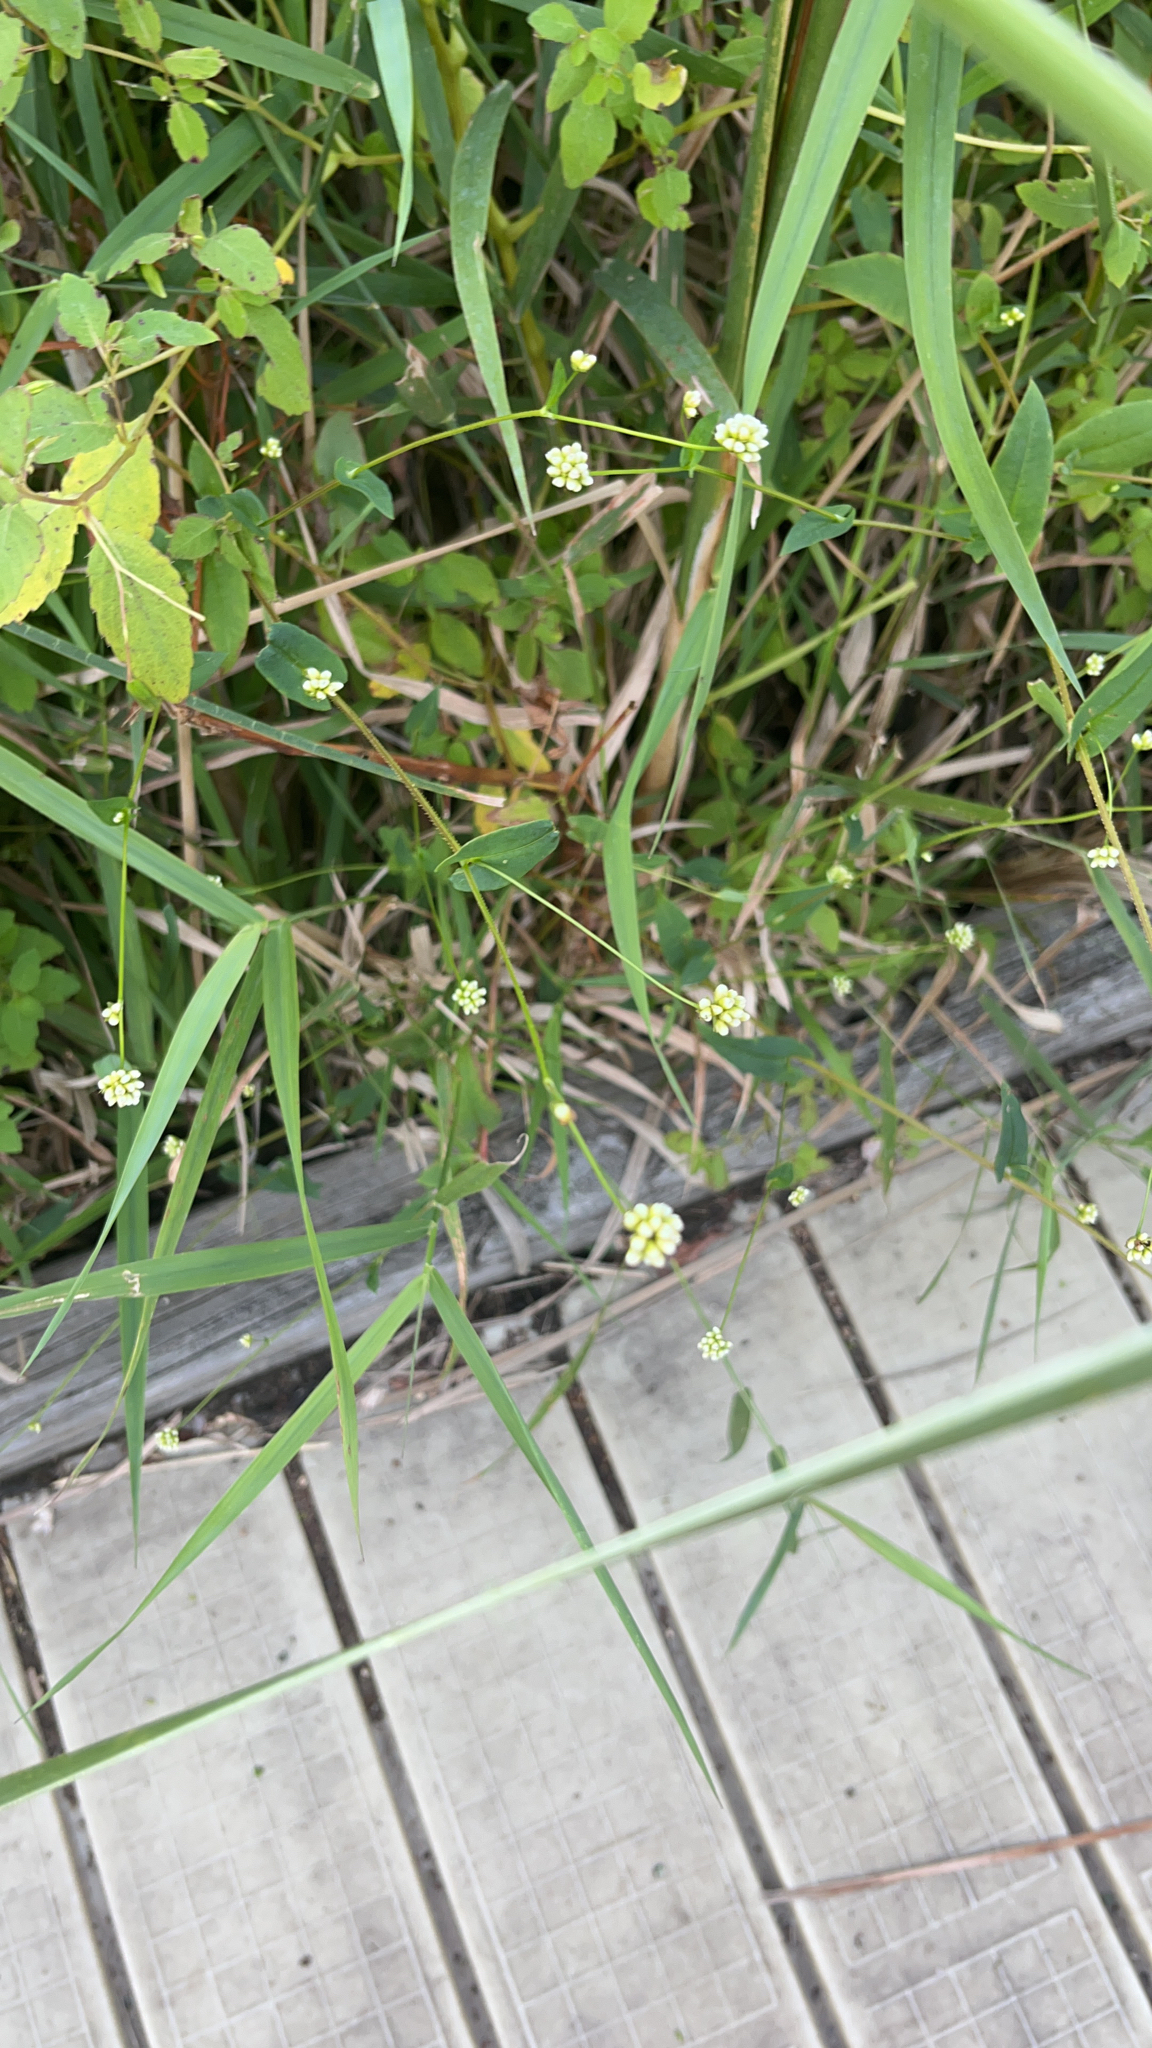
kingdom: Plantae
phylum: Tracheophyta
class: Magnoliopsida
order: Caryophyllales
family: Polygonaceae
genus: Persicaria
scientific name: Persicaria sagittata
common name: American tearthumb
